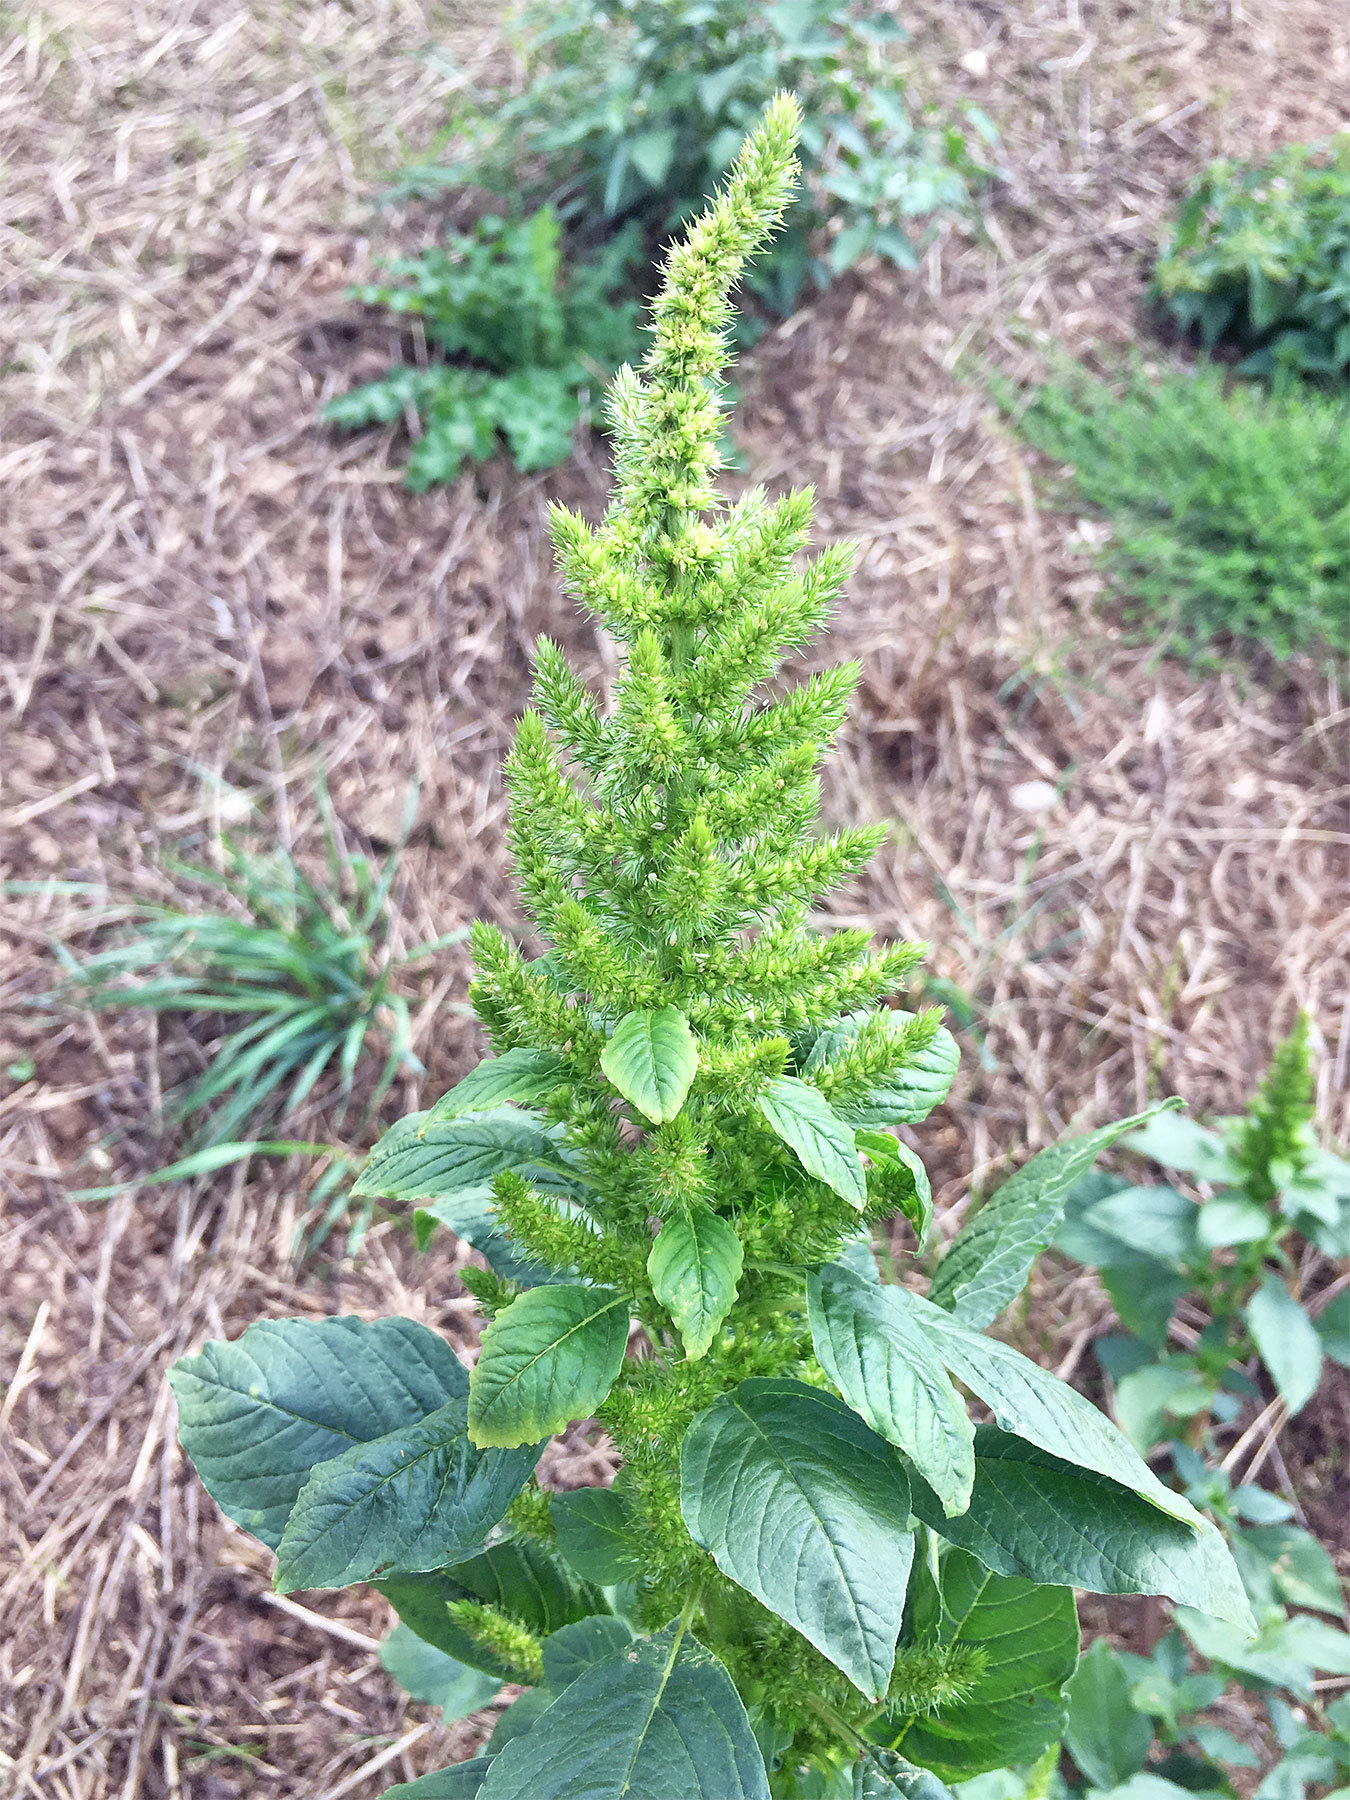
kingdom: Plantae
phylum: Tracheophyta
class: Magnoliopsida
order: Caryophyllales
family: Amaranthaceae
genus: Amaranthus
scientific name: Amaranthus retroflexus
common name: Redroot amaranth
